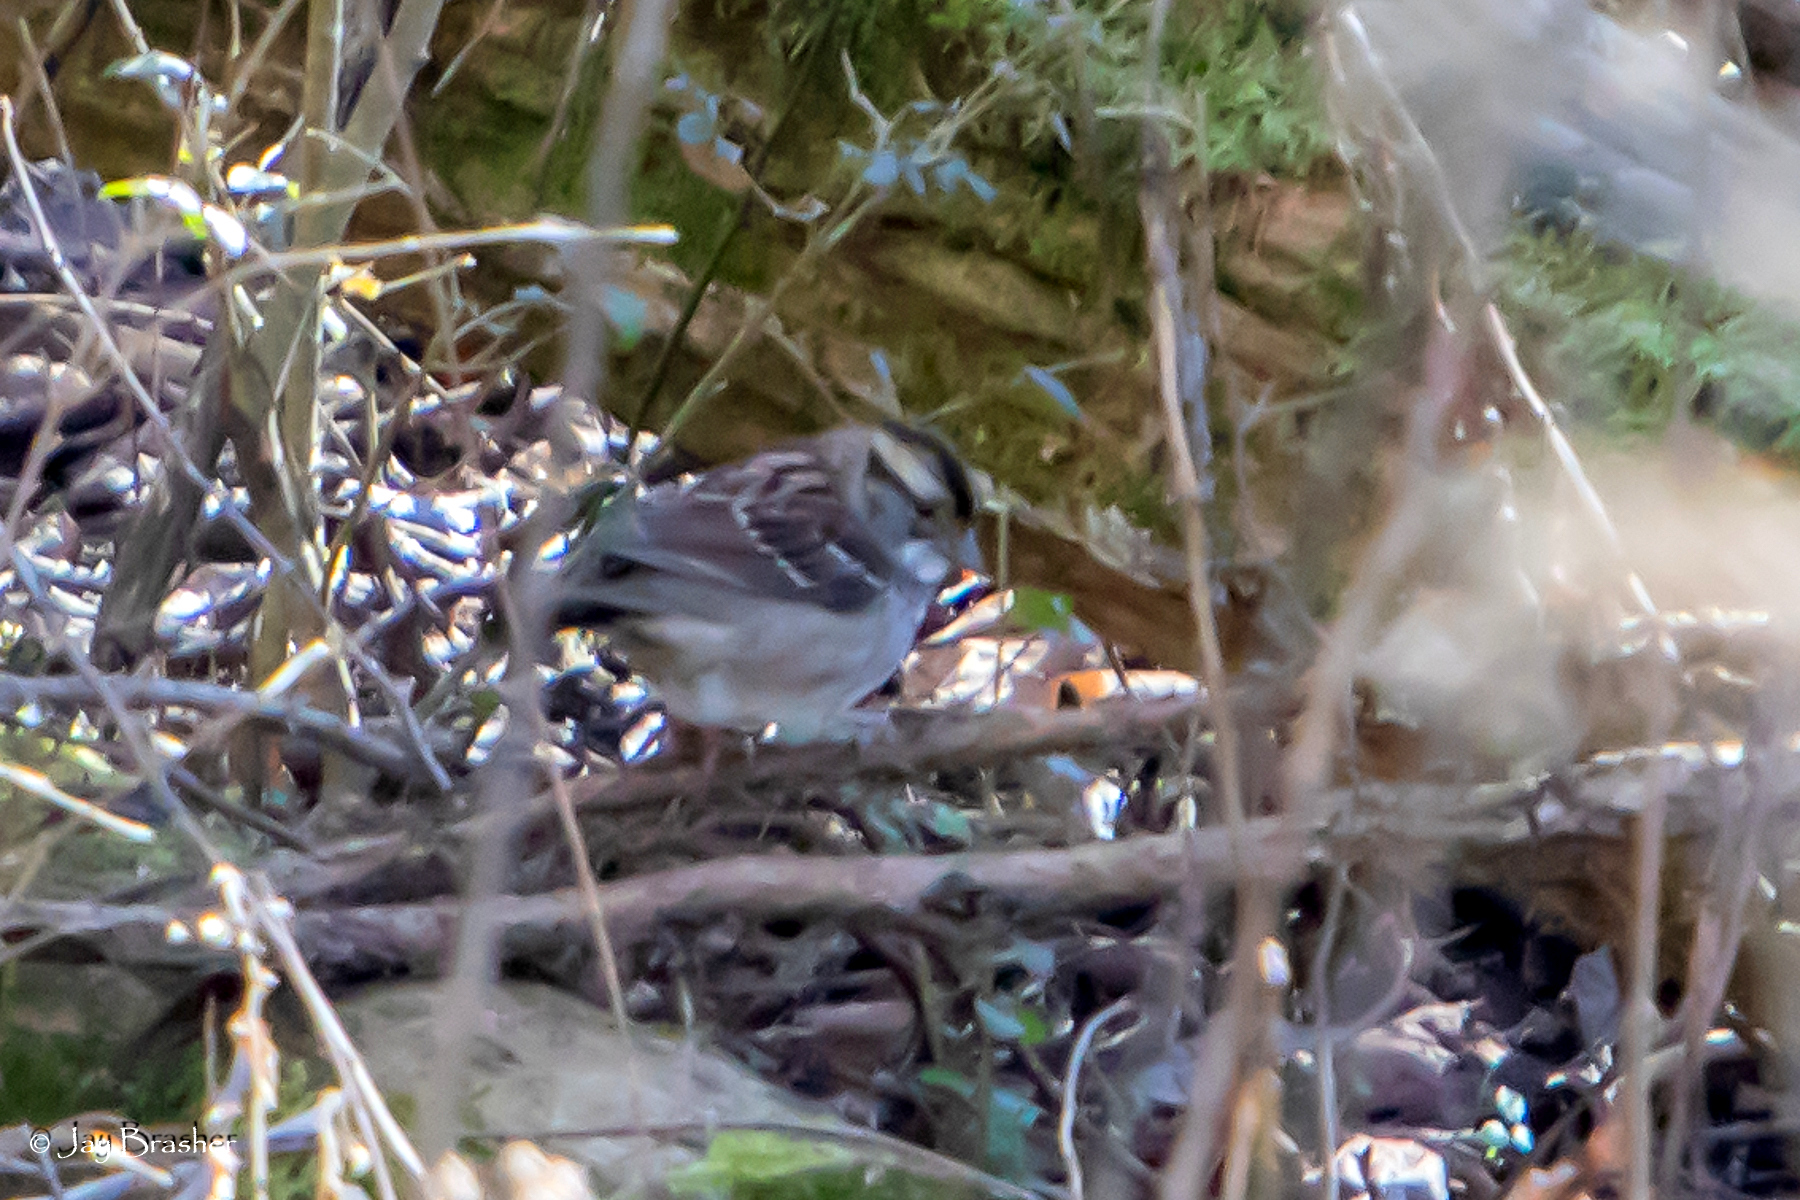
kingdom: Animalia
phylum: Chordata
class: Aves
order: Passeriformes
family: Passerellidae
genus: Zonotrichia
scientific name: Zonotrichia albicollis
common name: White-throated sparrow
